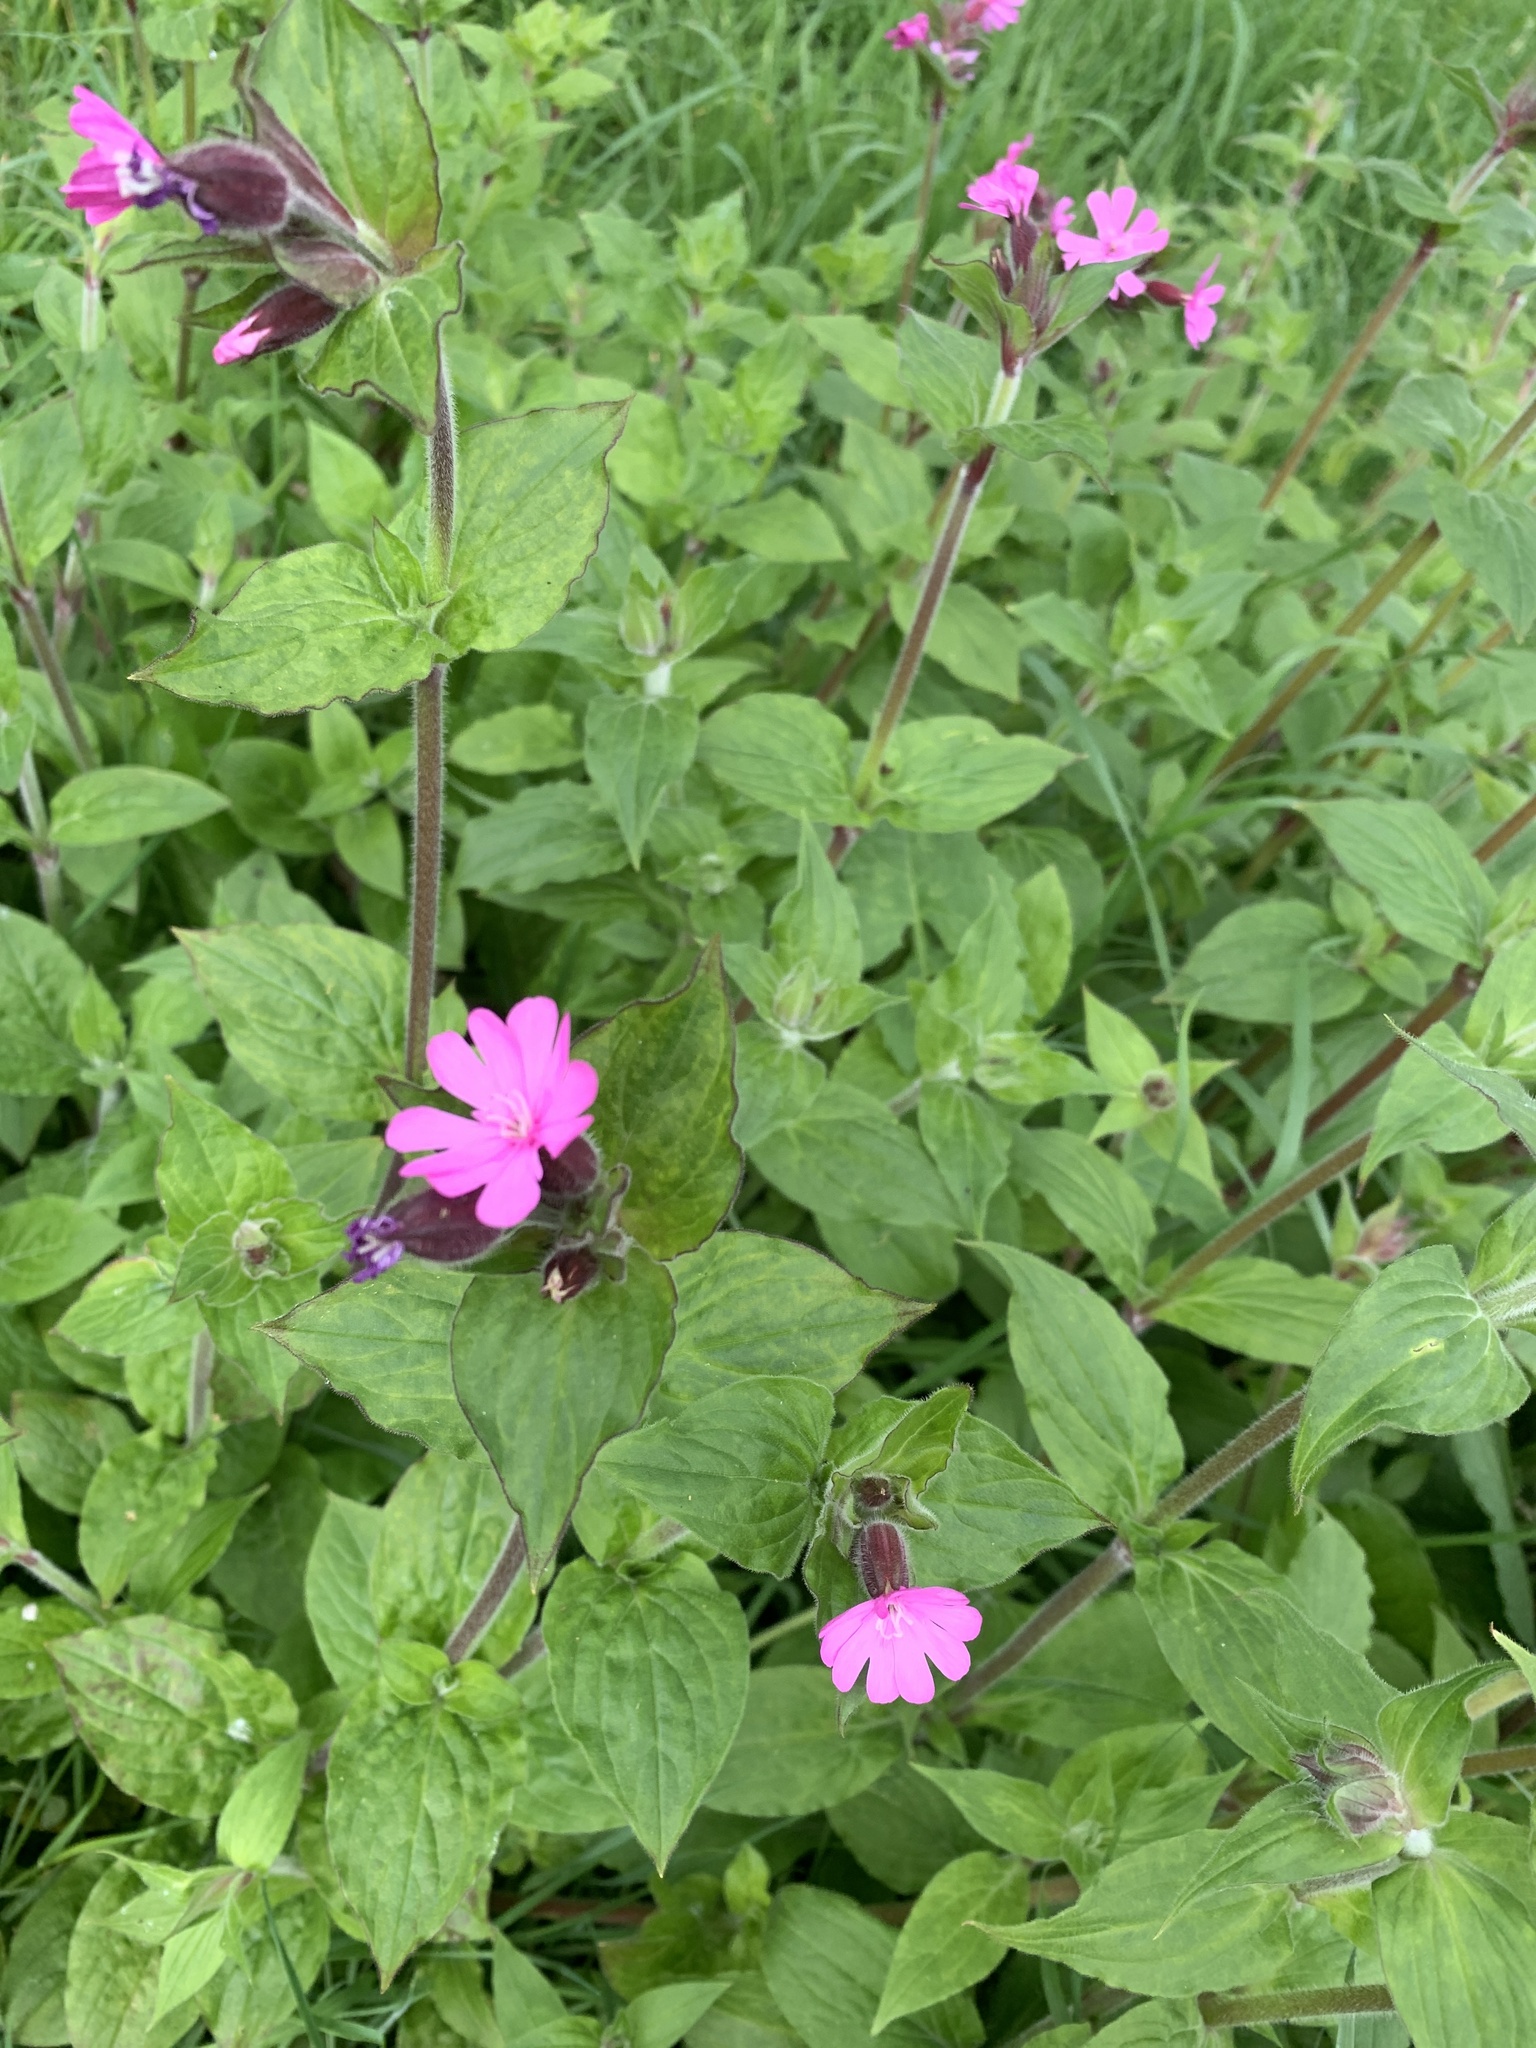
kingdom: Plantae
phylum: Tracheophyta
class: Magnoliopsida
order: Caryophyllales
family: Caryophyllaceae
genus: Silene
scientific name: Silene dioica
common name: Red campion
